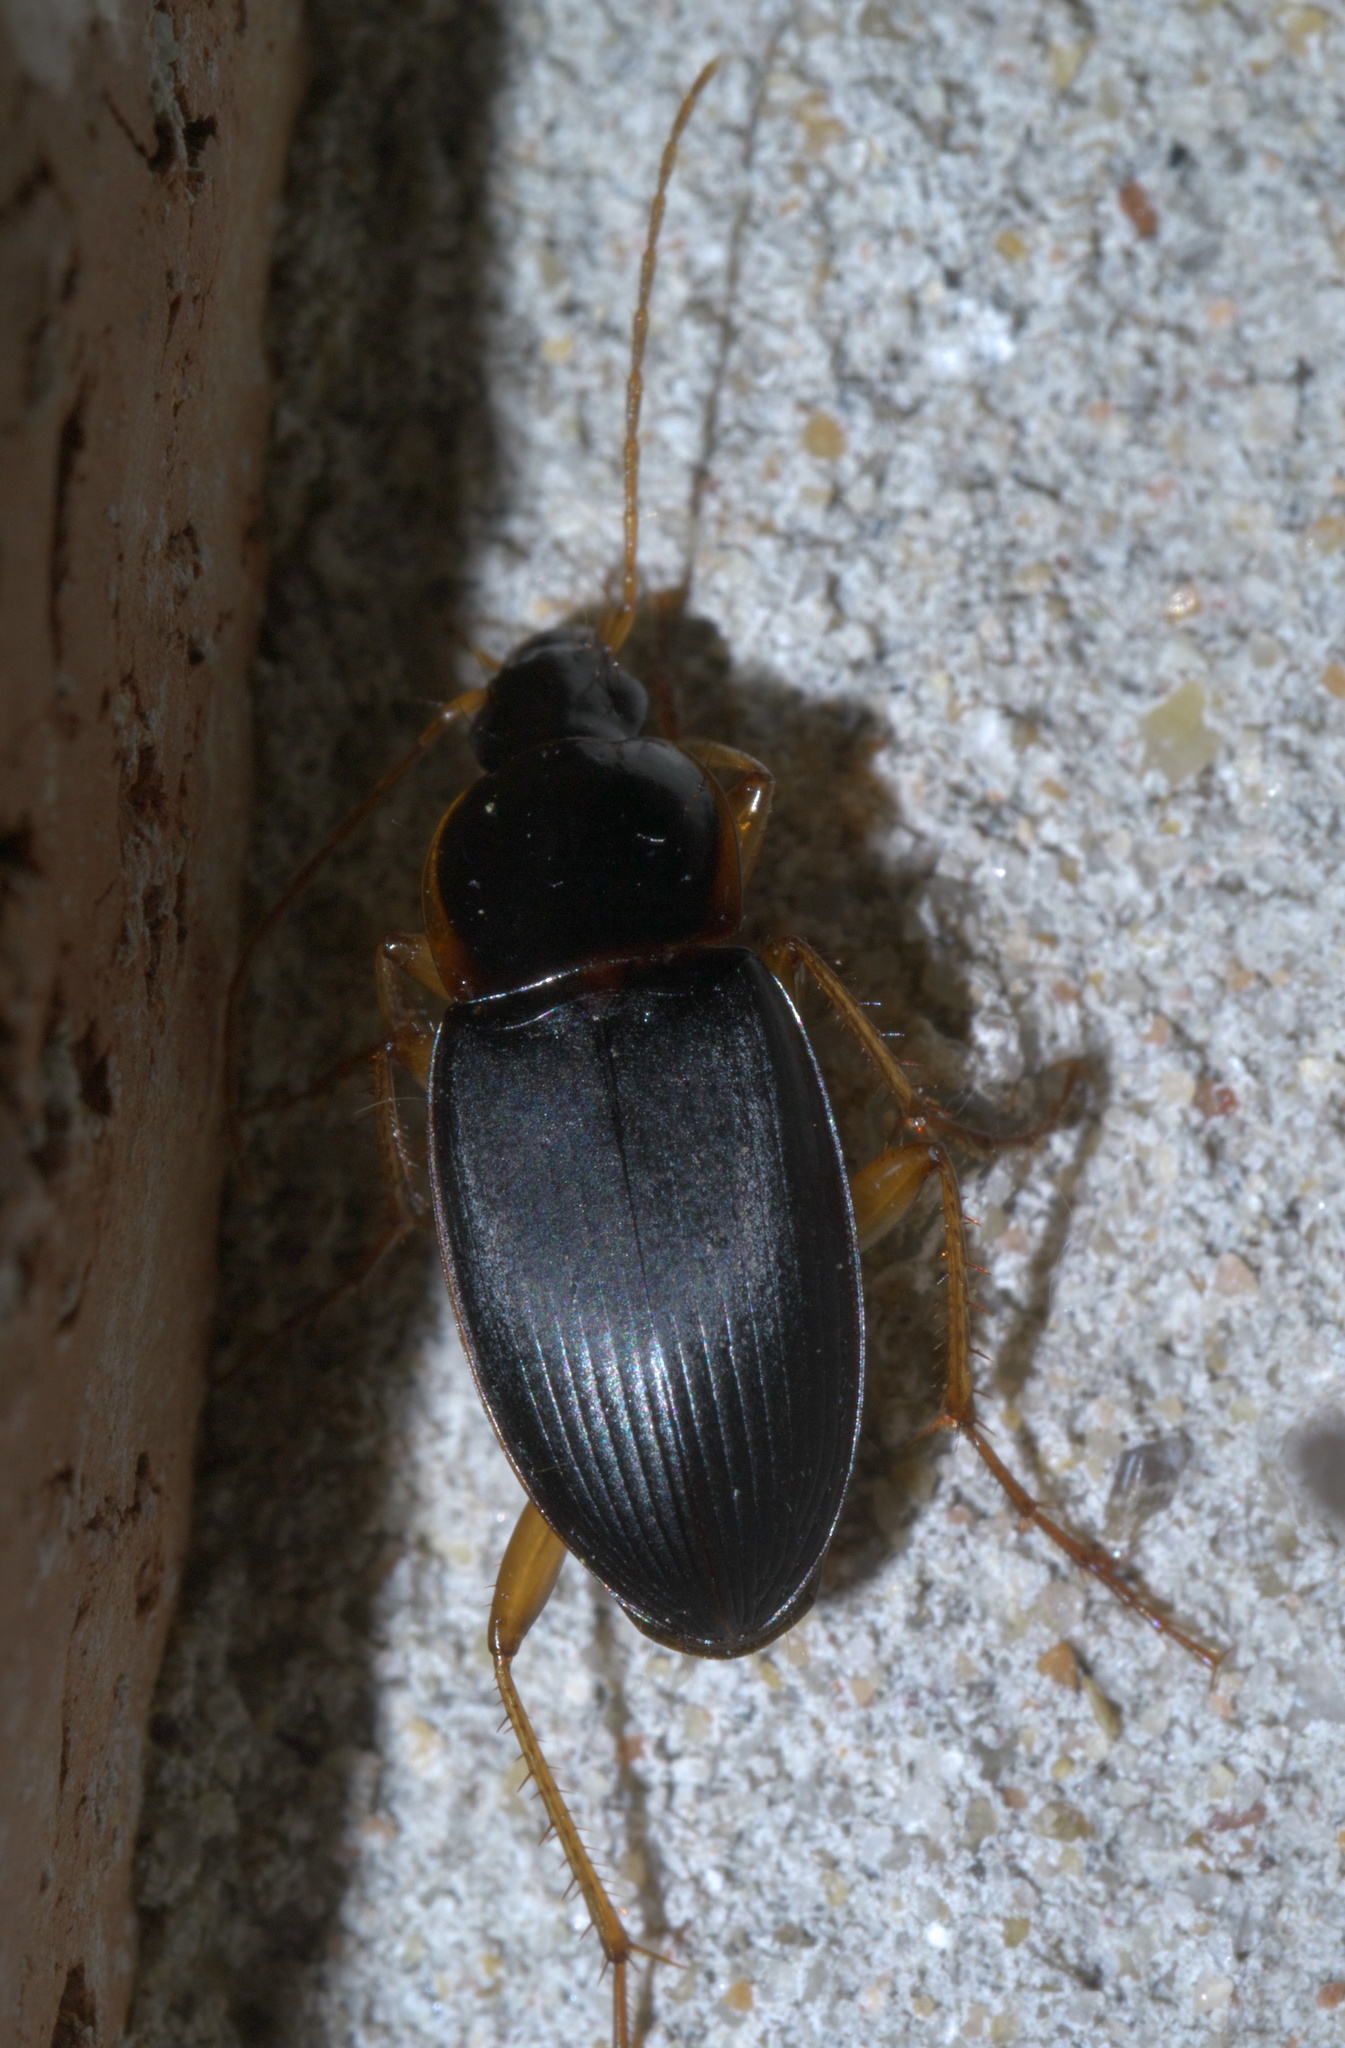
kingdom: Animalia
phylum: Arthropoda
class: Insecta
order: Coleoptera
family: Carabidae
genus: Calathus
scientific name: Calathus opaculus
